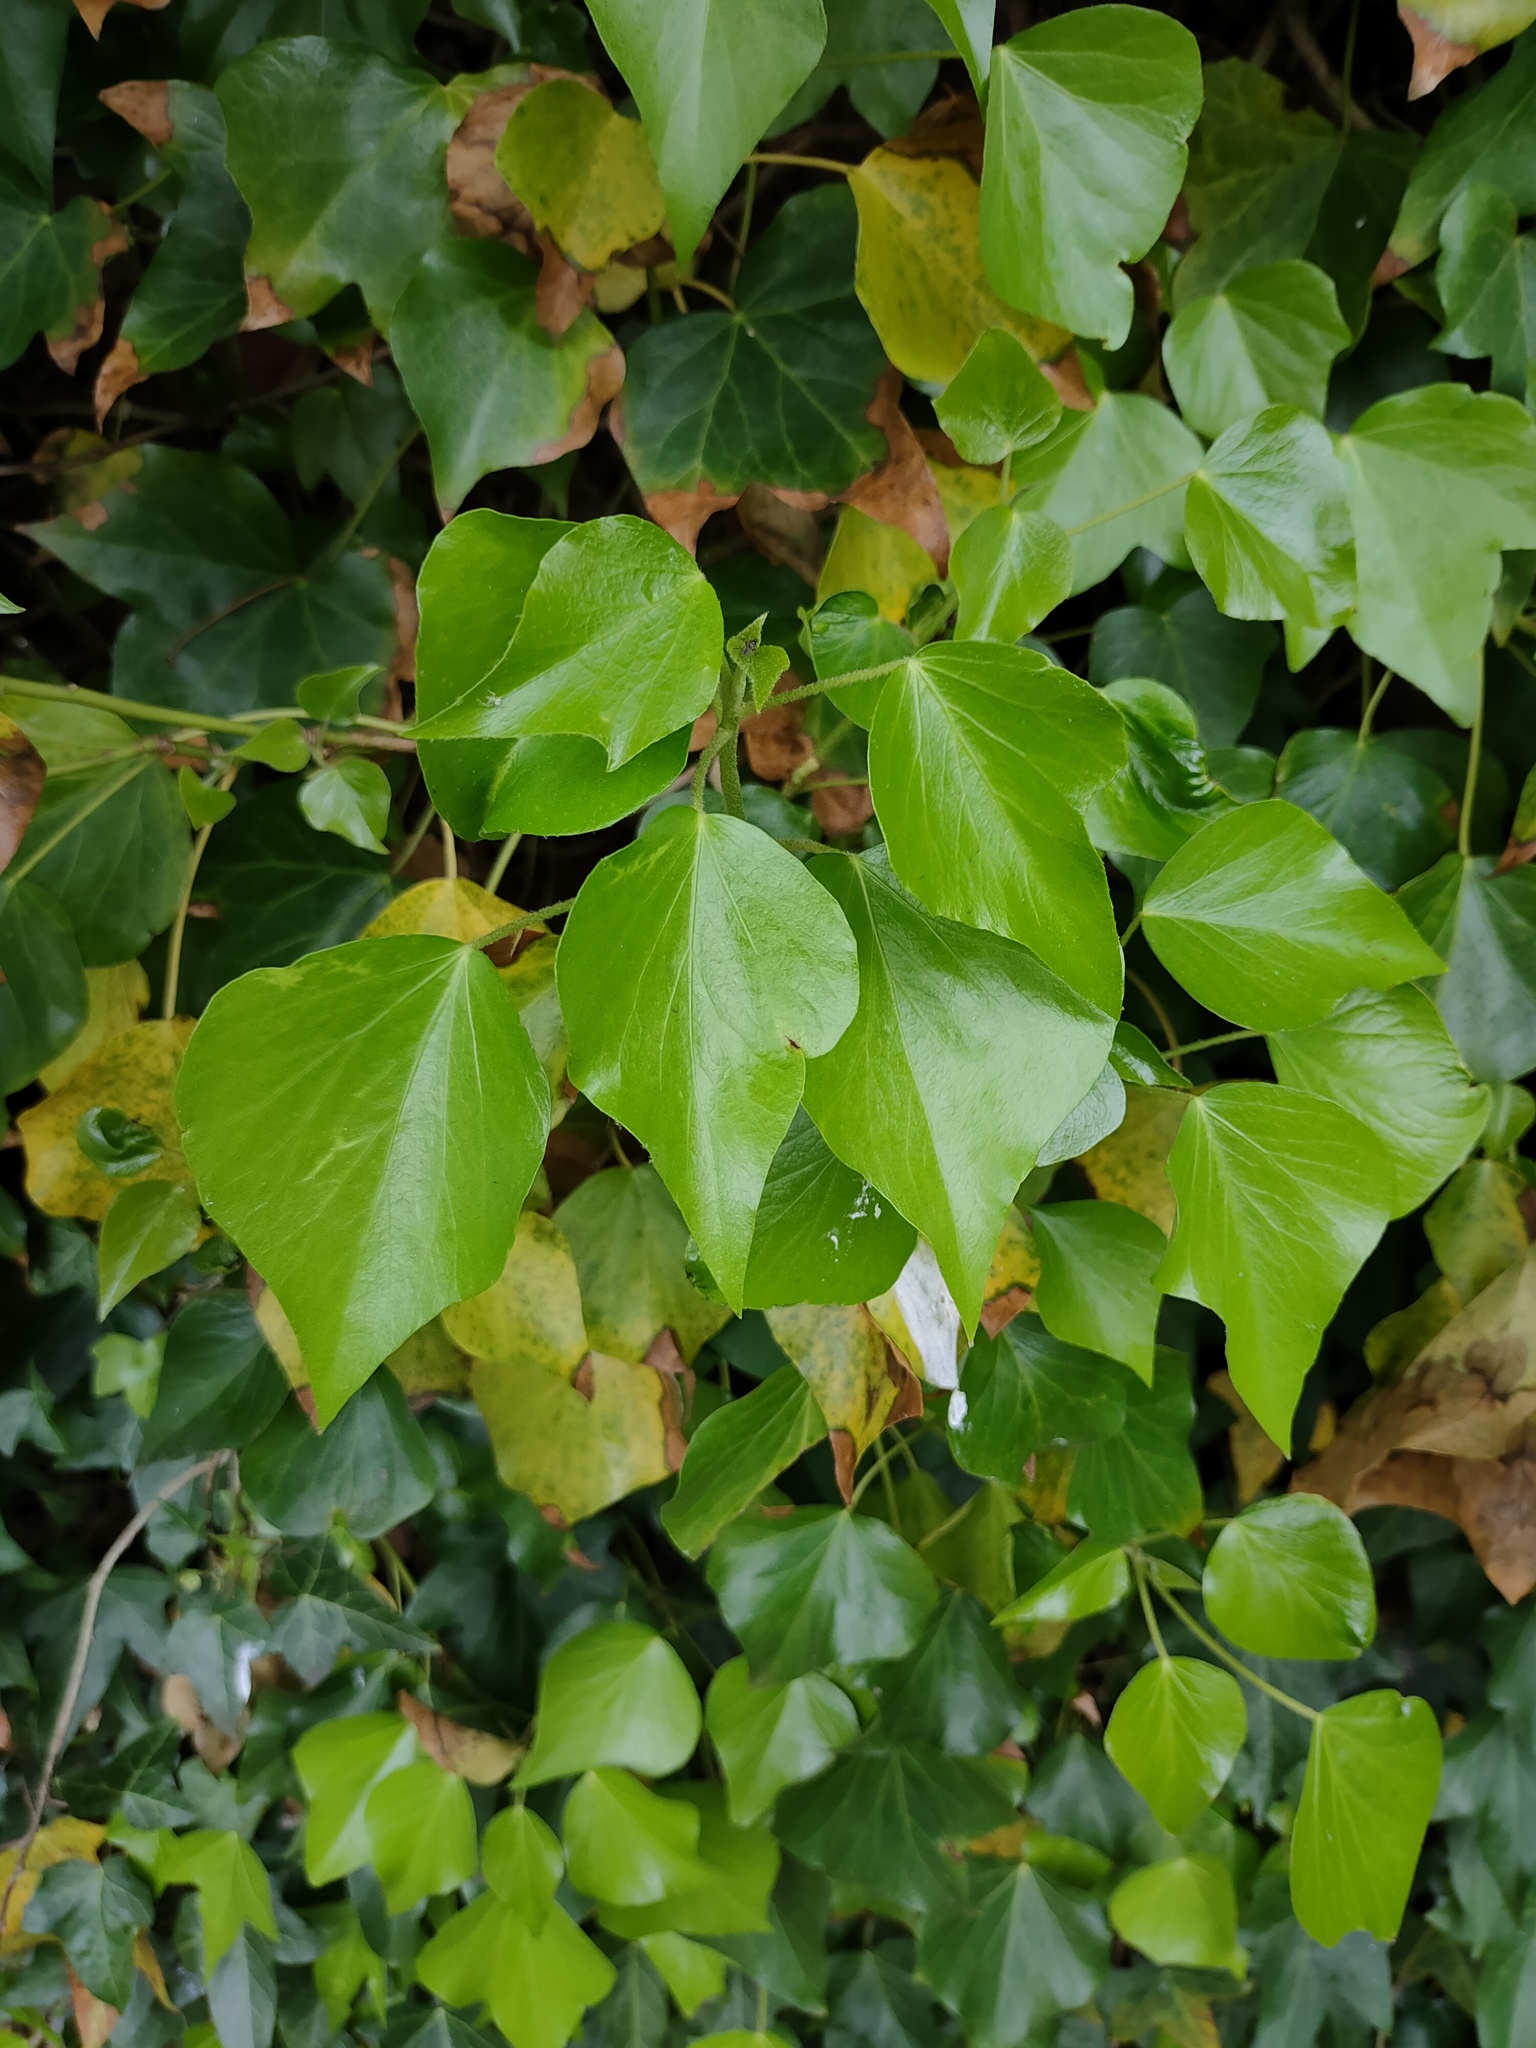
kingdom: Plantae
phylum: Tracheophyta
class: Magnoliopsida
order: Apiales
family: Araliaceae
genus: Hedera
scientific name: Hedera helix
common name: Ivy
